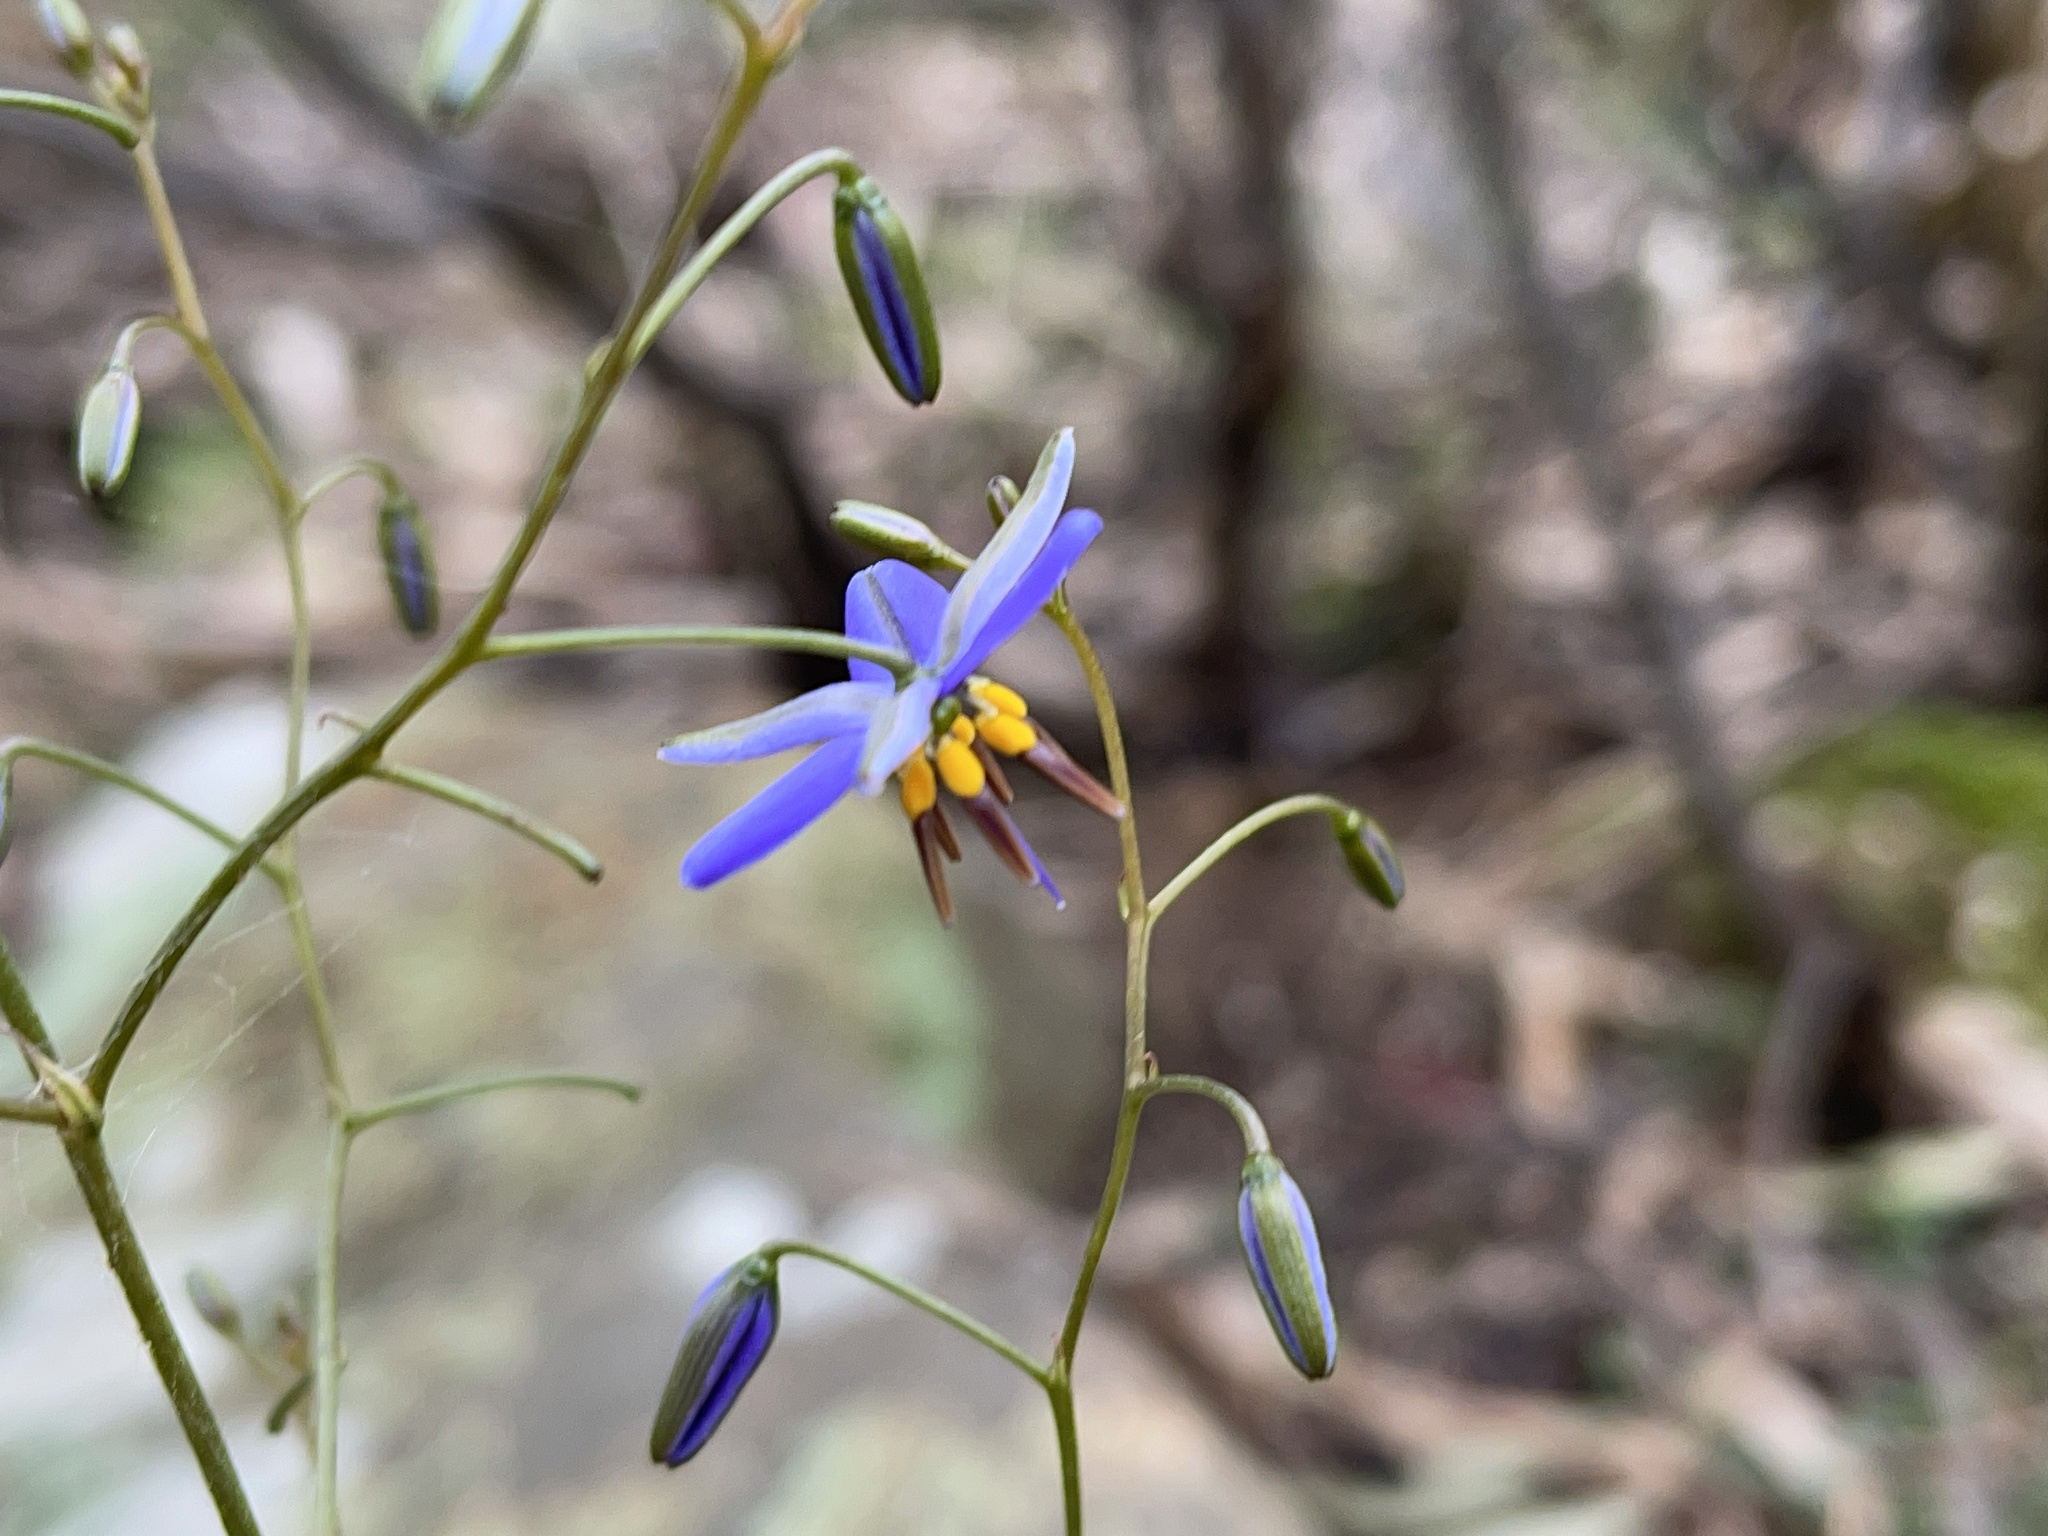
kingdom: Plantae
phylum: Tracheophyta
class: Liliopsida
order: Asparagales
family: Asphodelaceae
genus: Dianella
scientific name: Dianella revoluta
